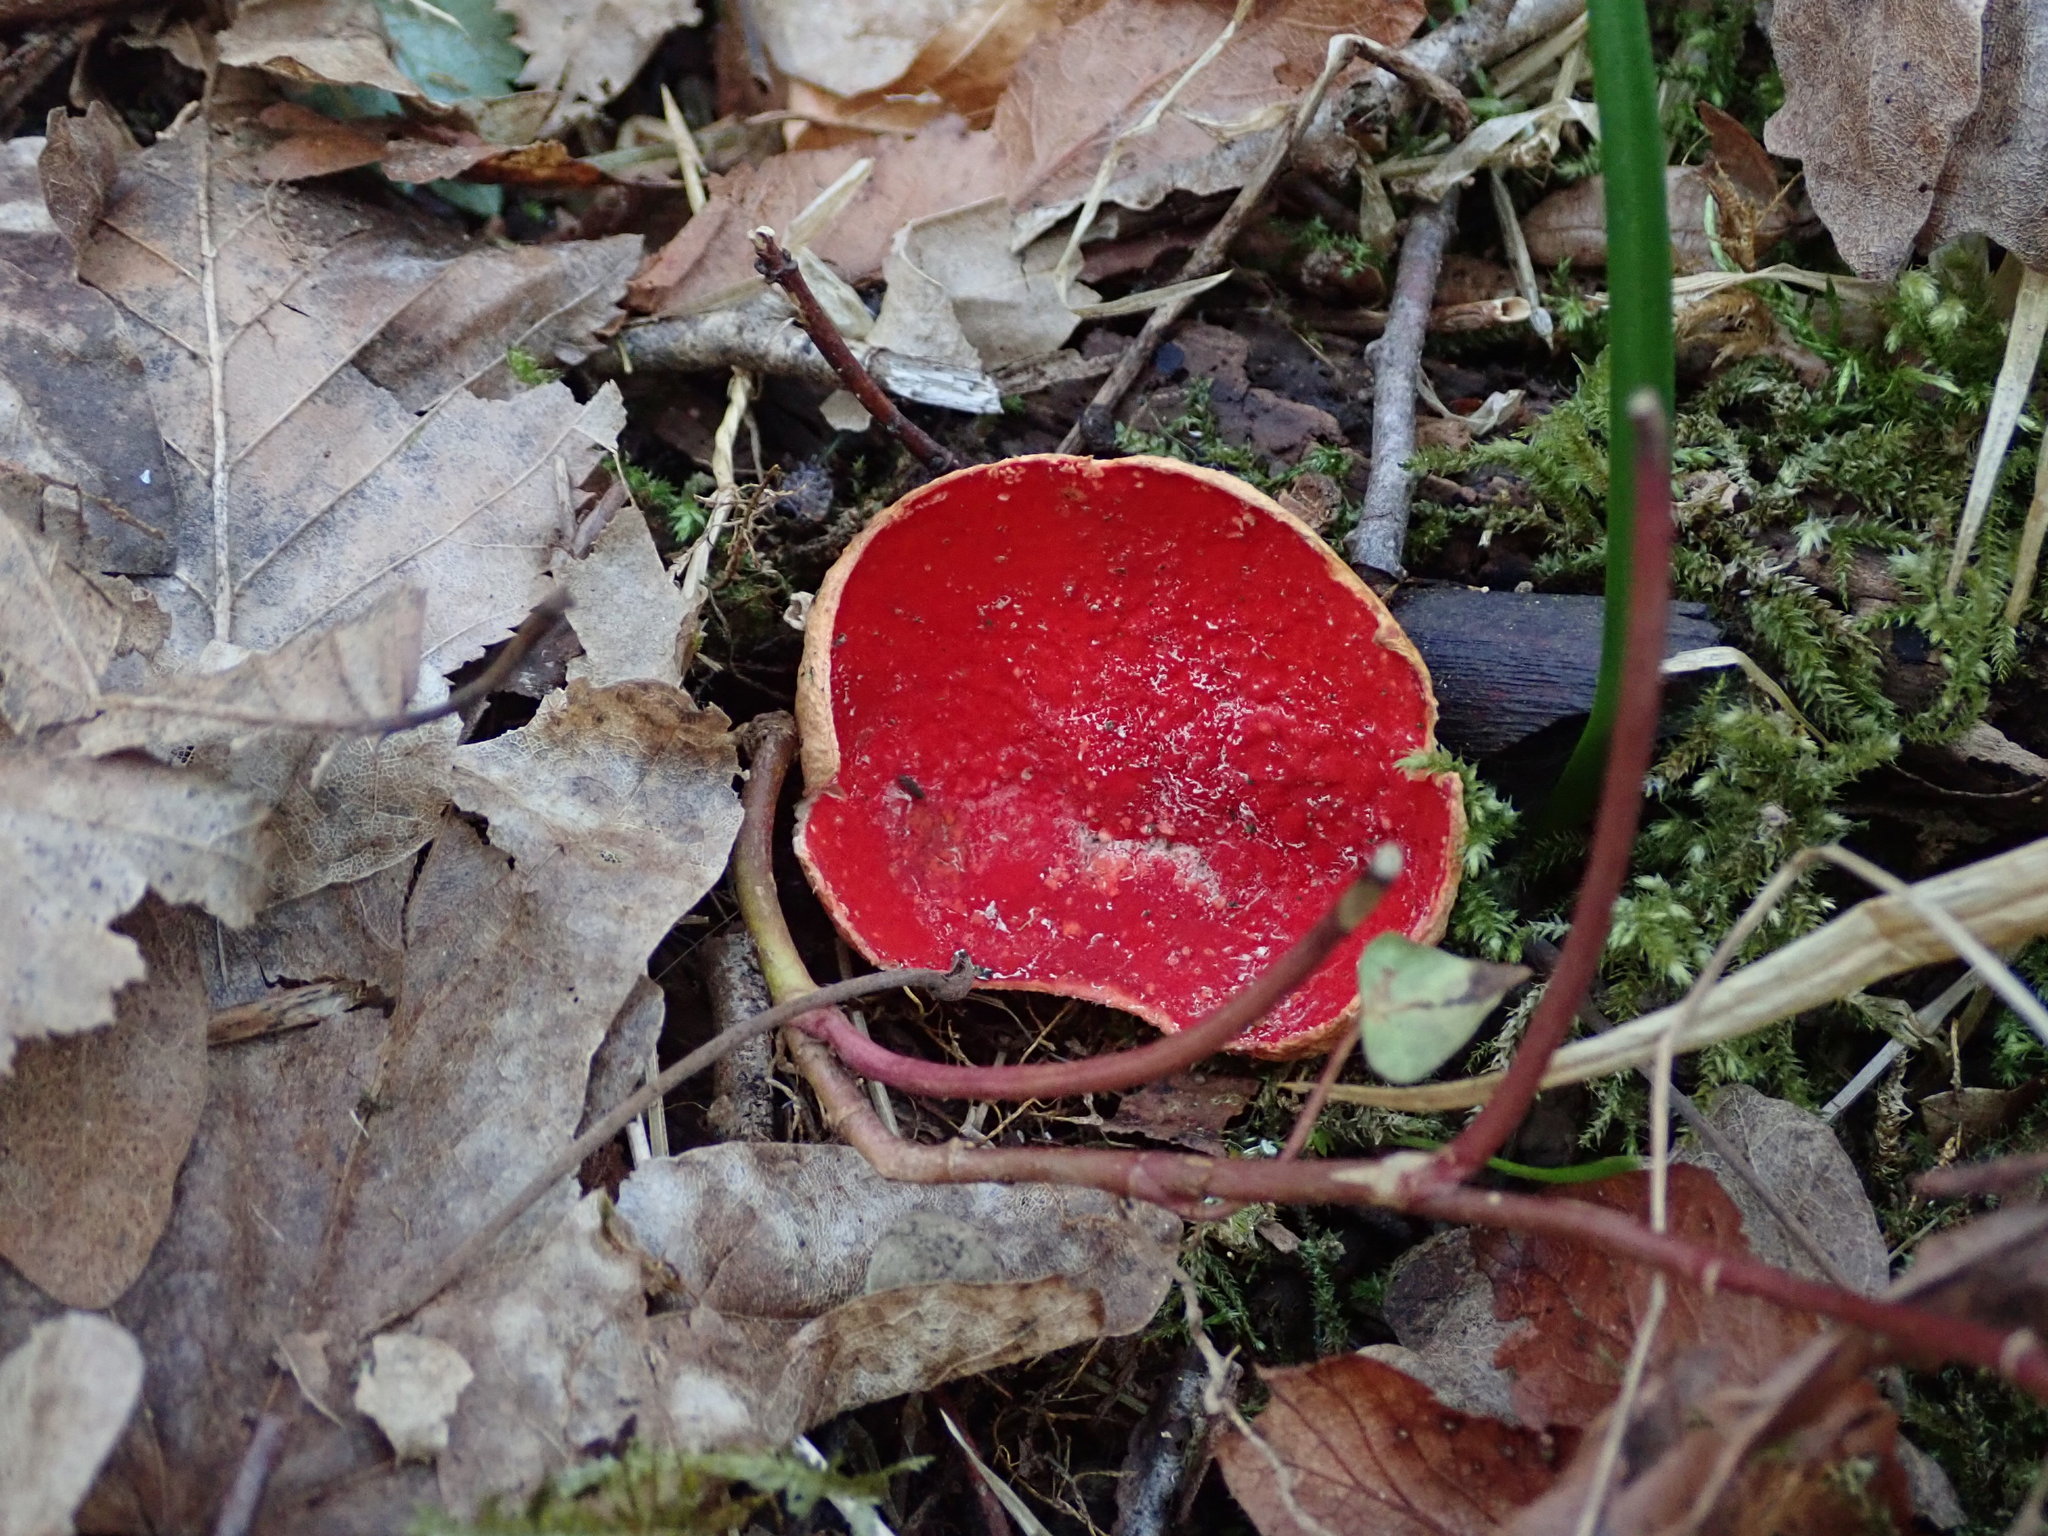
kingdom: Fungi
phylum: Ascomycota
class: Pezizomycetes
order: Pezizales
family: Sarcoscyphaceae
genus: Sarcoscypha
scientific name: Sarcoscypha
